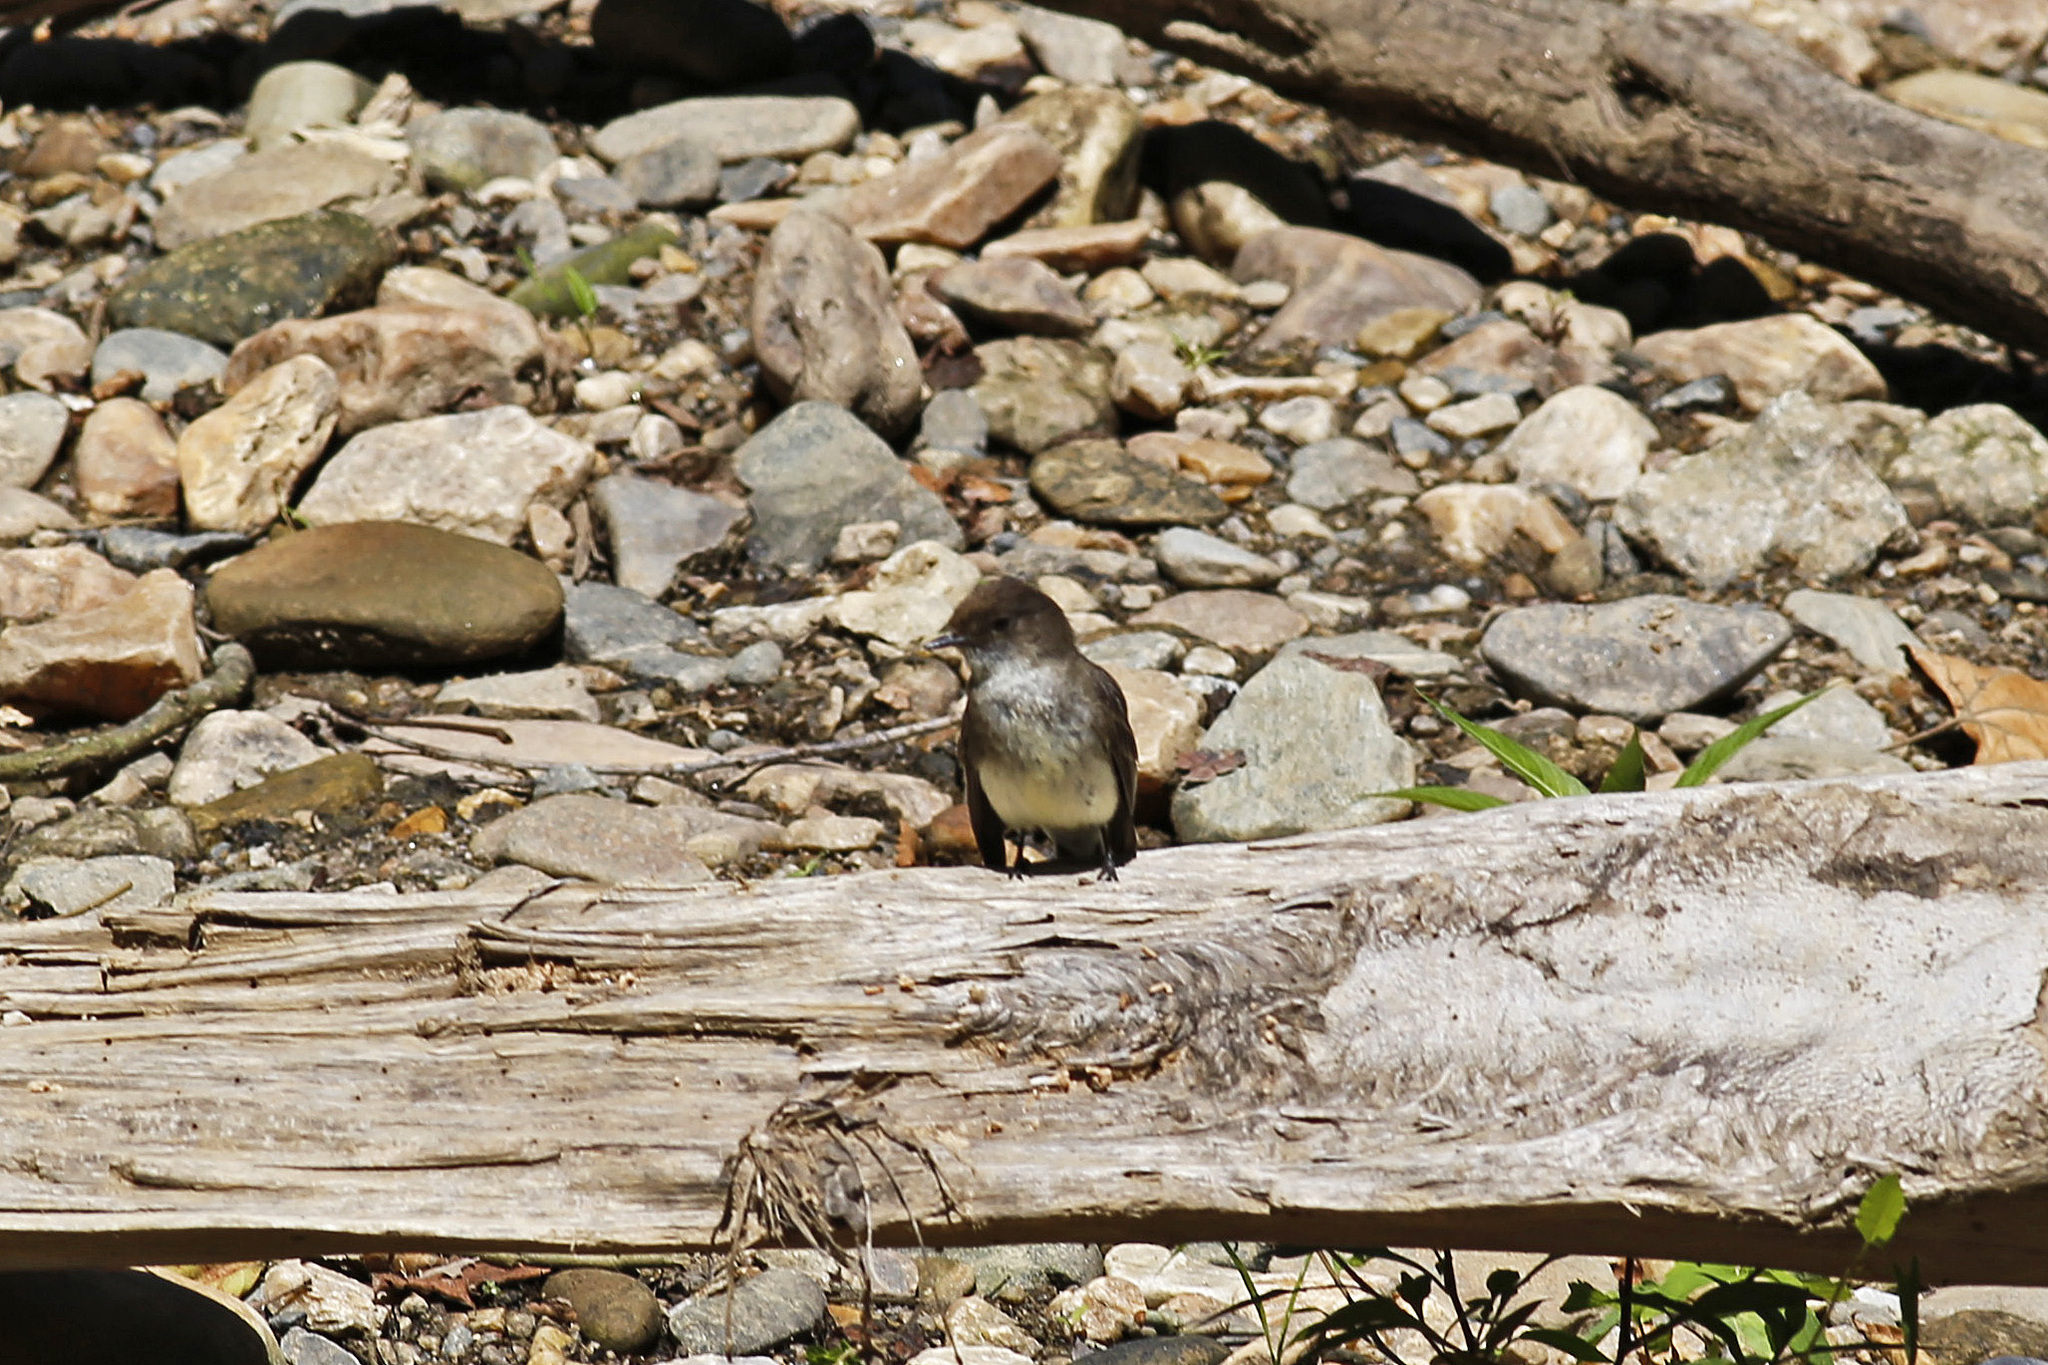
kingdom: Animalia
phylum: Chordata
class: Aves
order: Passeriformes
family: Tyrannidae
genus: Sayornis
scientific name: Sayornis phoebe
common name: Eastern phoebe
